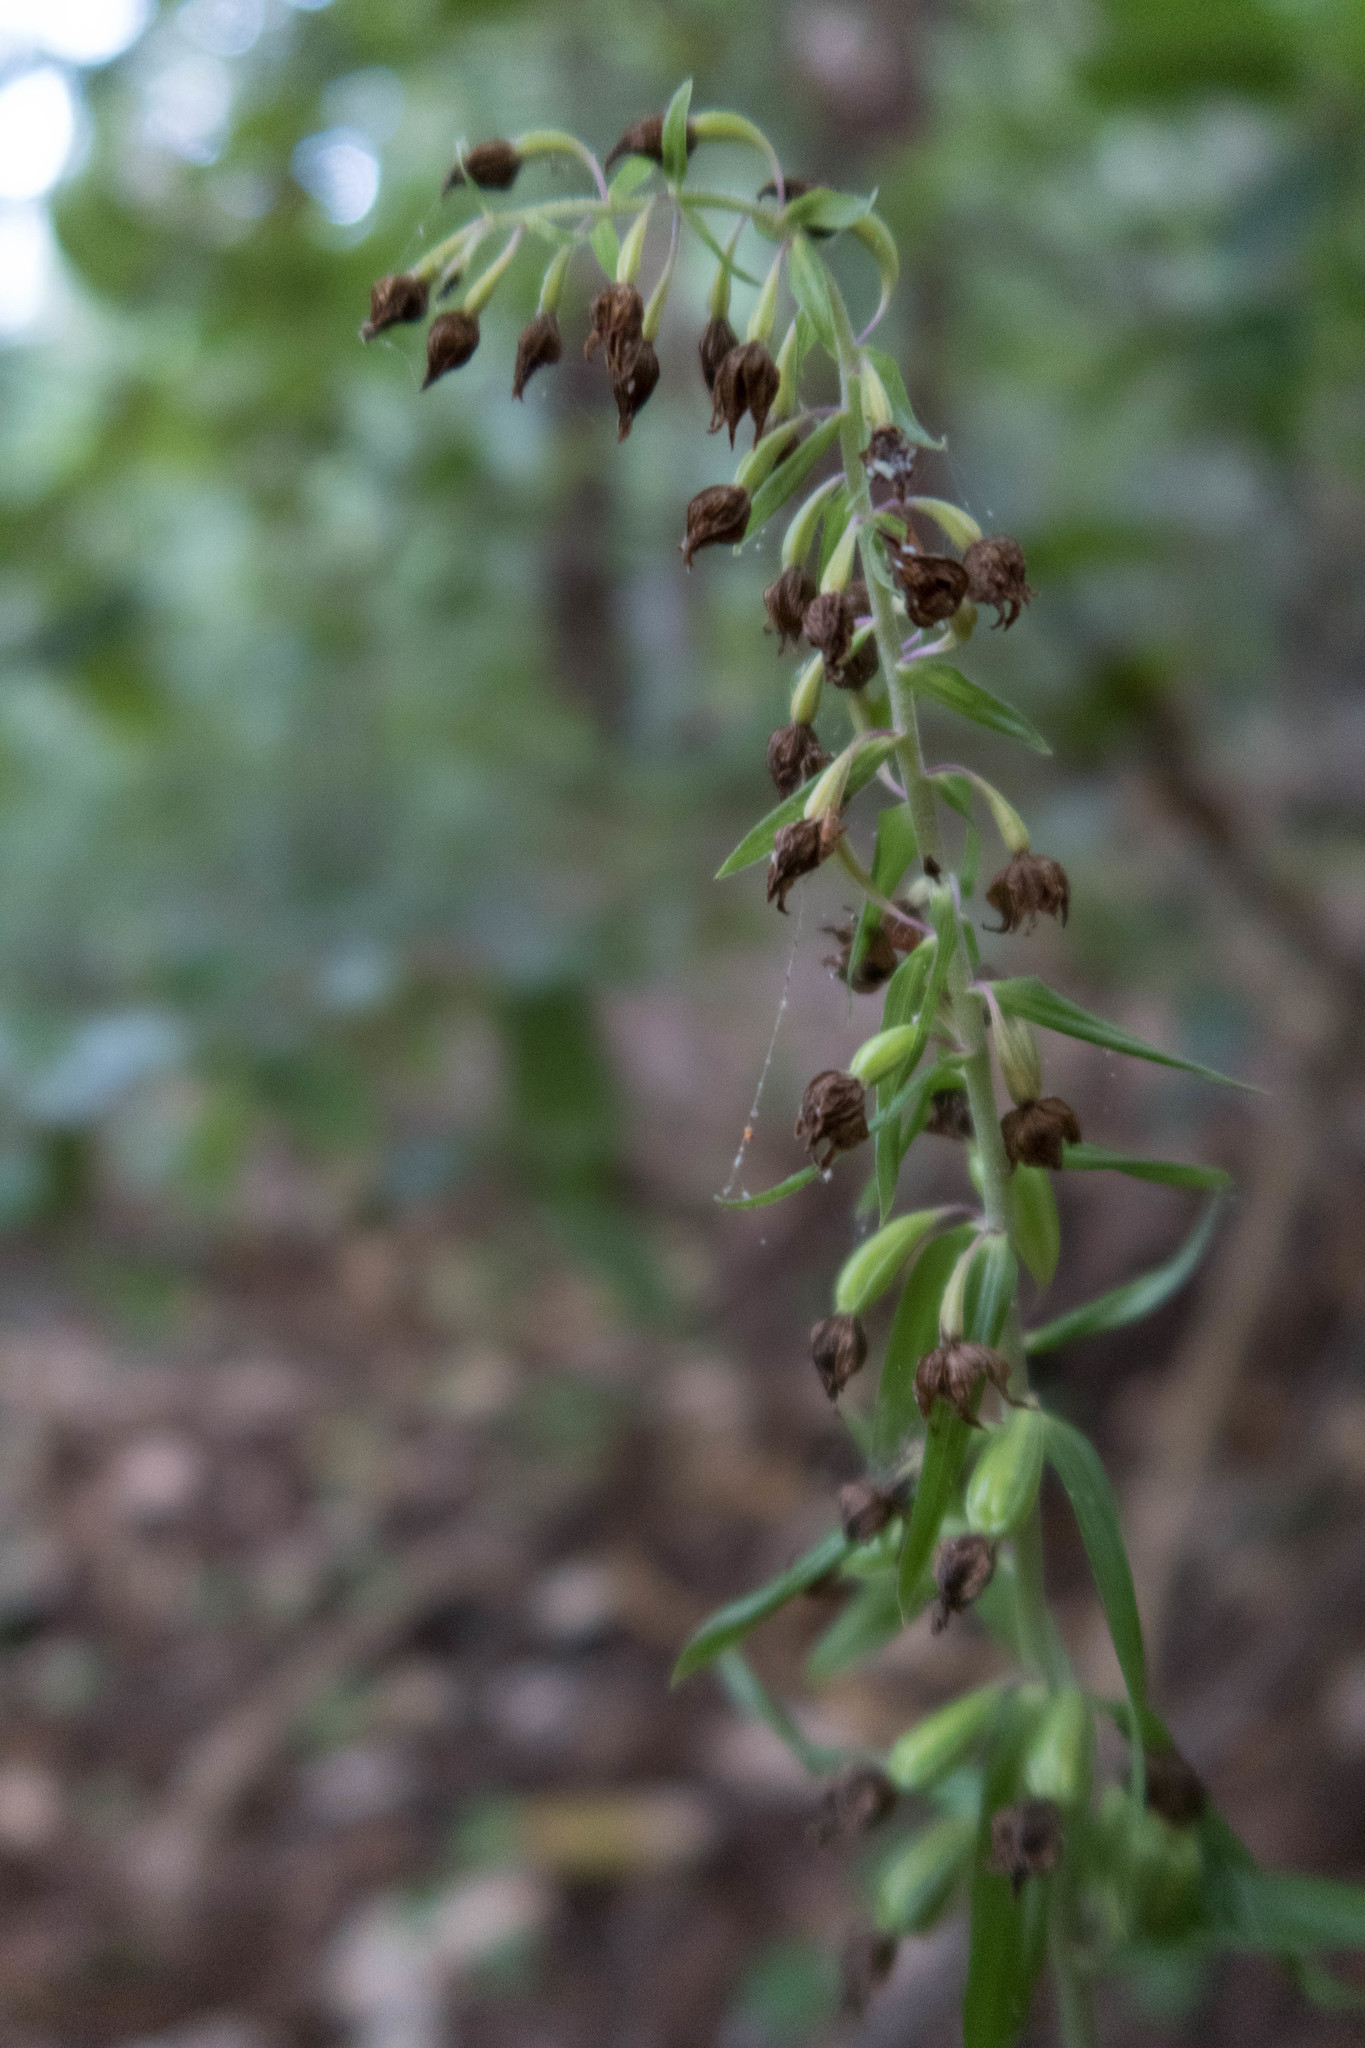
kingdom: Plantae
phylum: Tracheophyta
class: Liliopsida
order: Asparagales
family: Orchidaceae
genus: Epipactis
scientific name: Epipactis helleborine
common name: Broad-leaved helleborine
